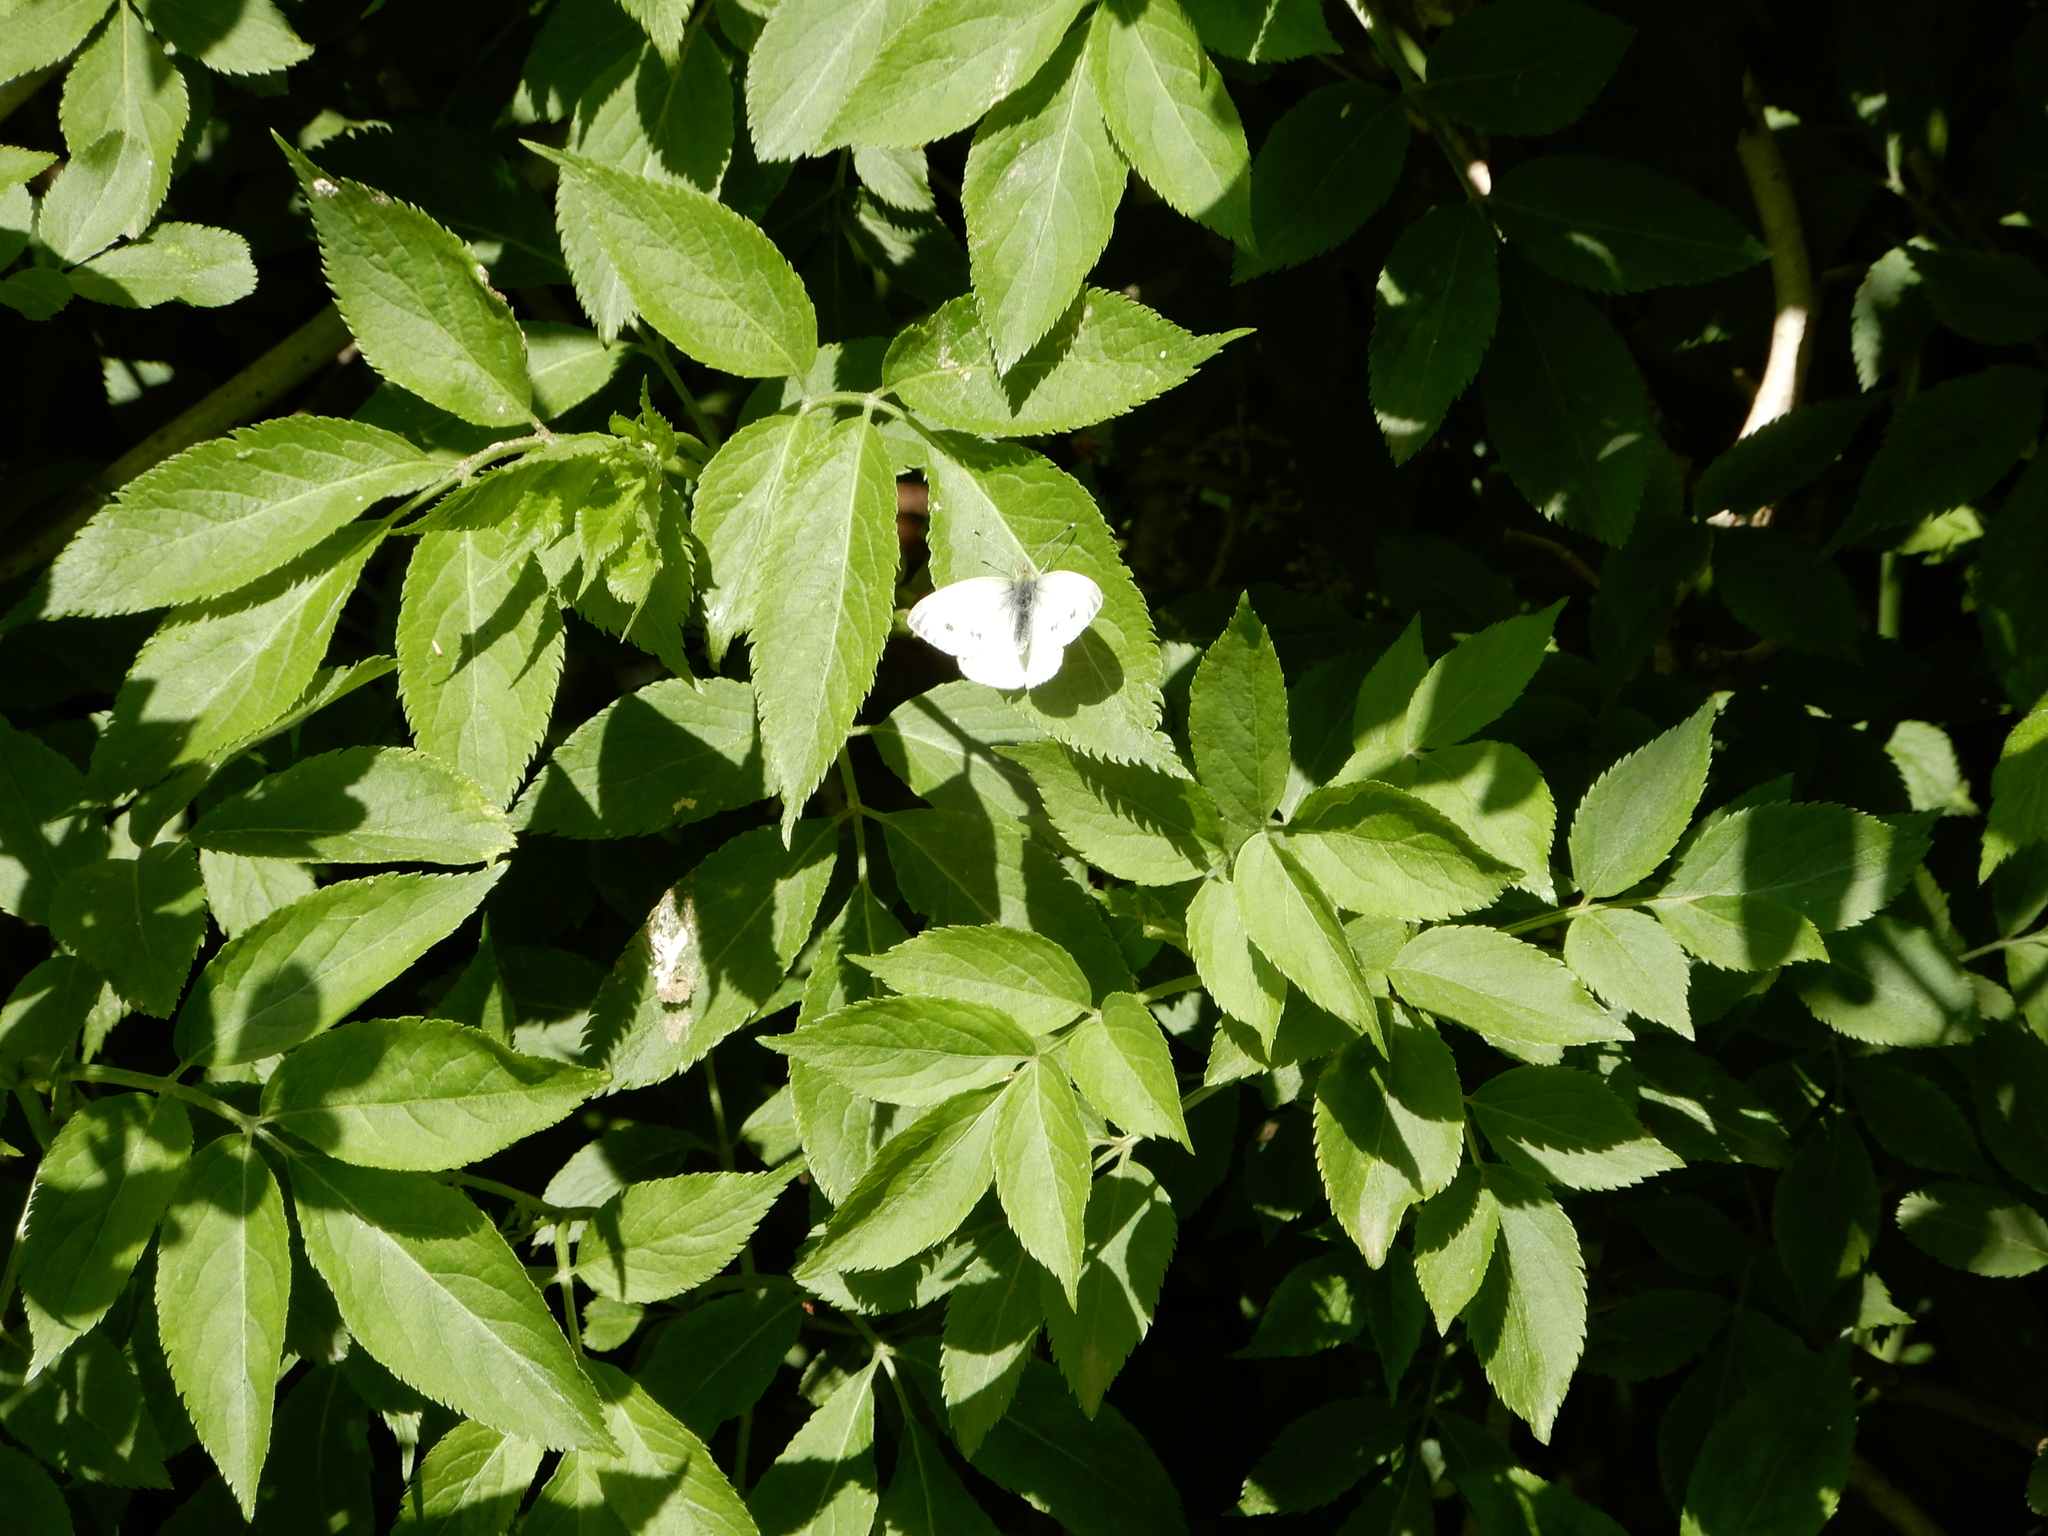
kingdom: Animalia
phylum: Arthropoda
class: Insecta
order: Lepidoptera
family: Pieridae
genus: Pieris
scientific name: Pieris napi
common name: Green-veined white
